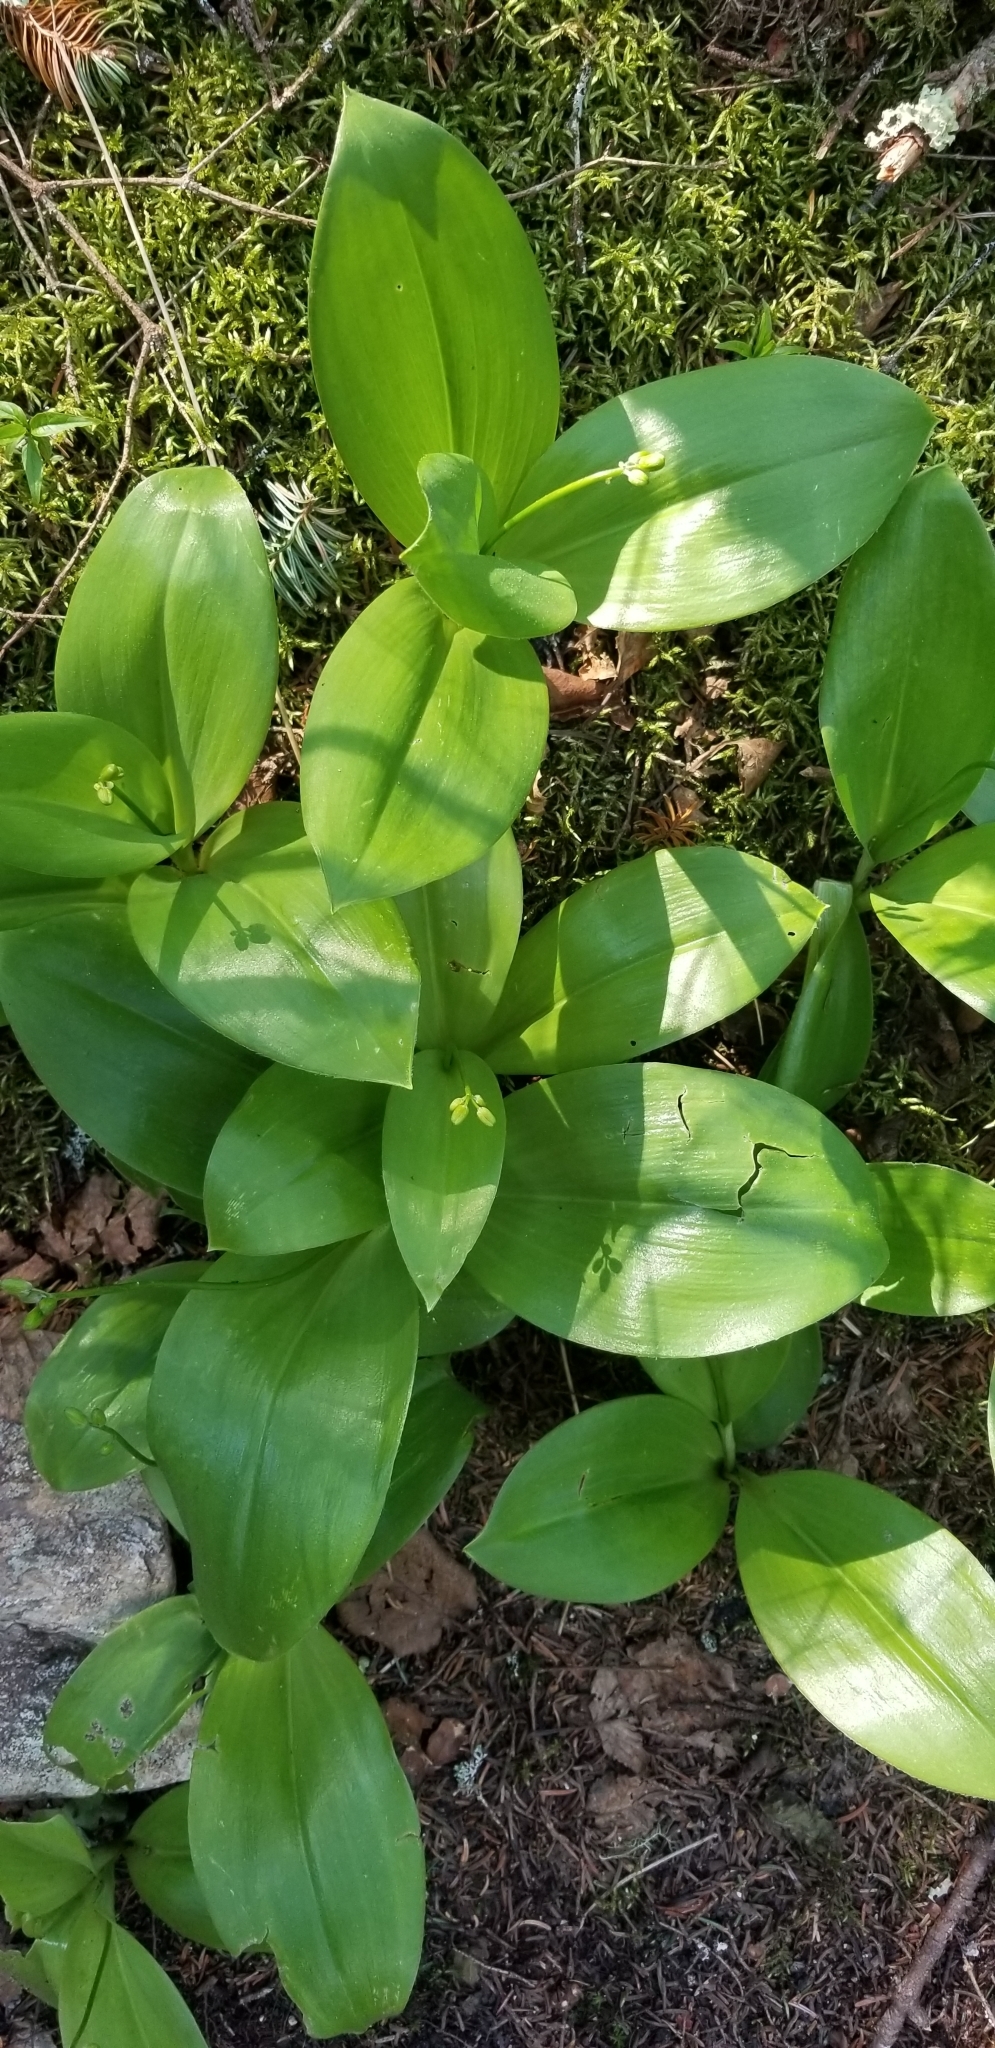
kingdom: Plantae
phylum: Tracheophyta
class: Liliopsida
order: Liliales
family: Liliaceae
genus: Clintonia
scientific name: Clintonia borealis
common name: Yellow clintonia
